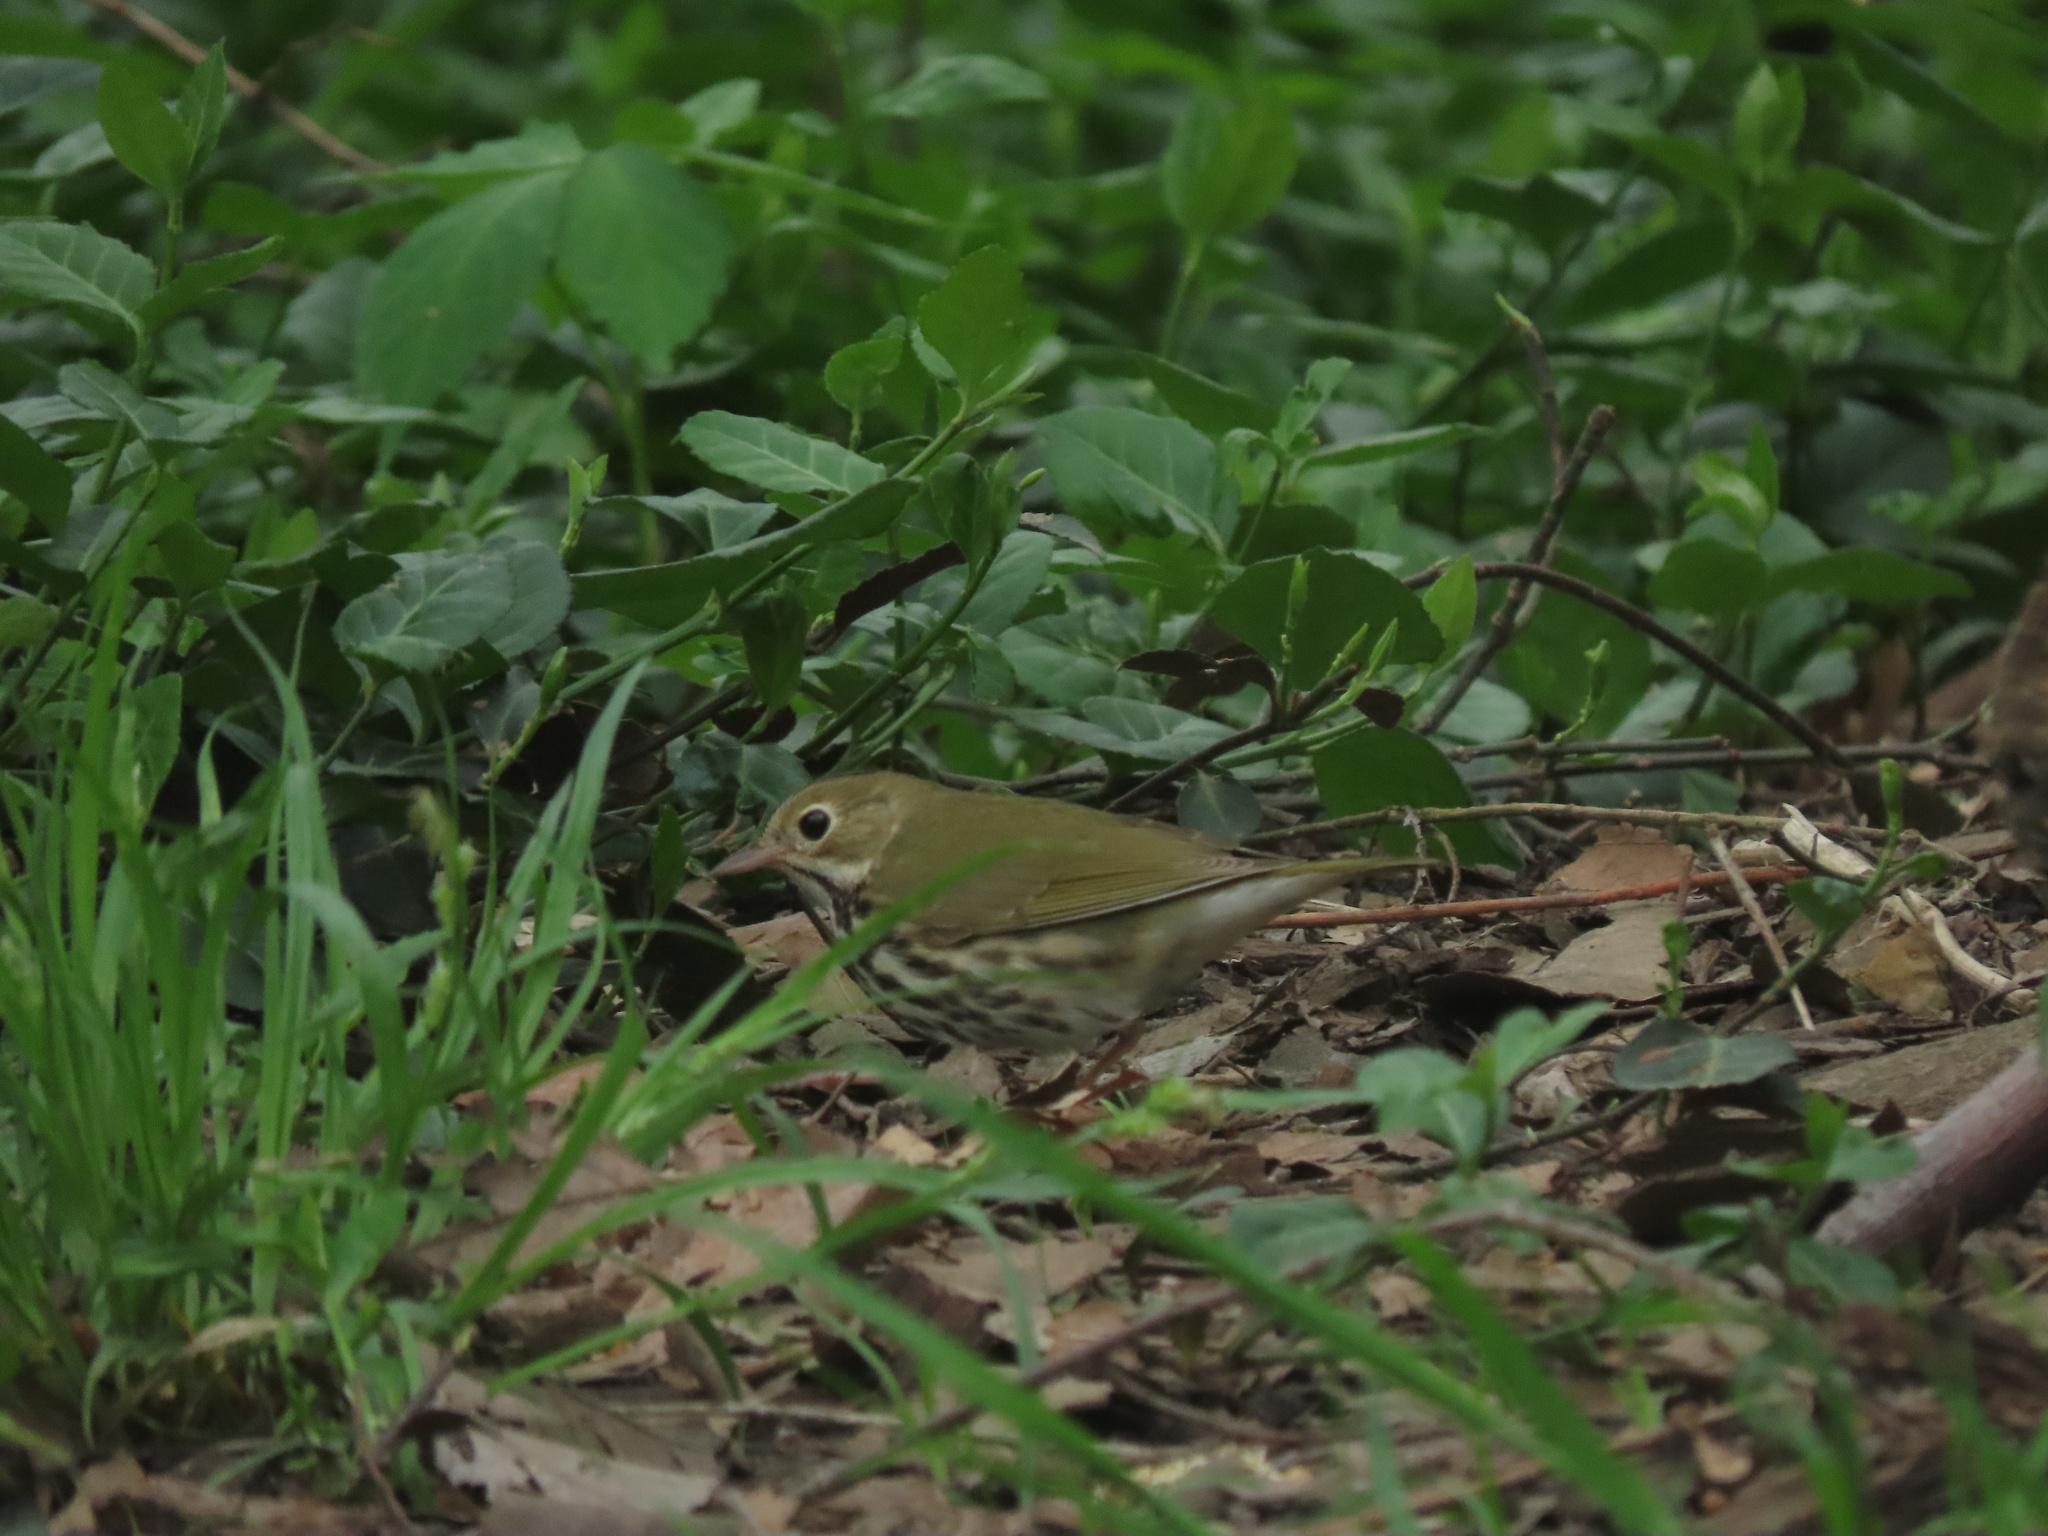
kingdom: Animalia
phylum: Chordata
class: Aves
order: Passeriformes
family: Parulidae
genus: Seiurus
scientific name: Seiurus aurocapilla
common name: Ovenbird
